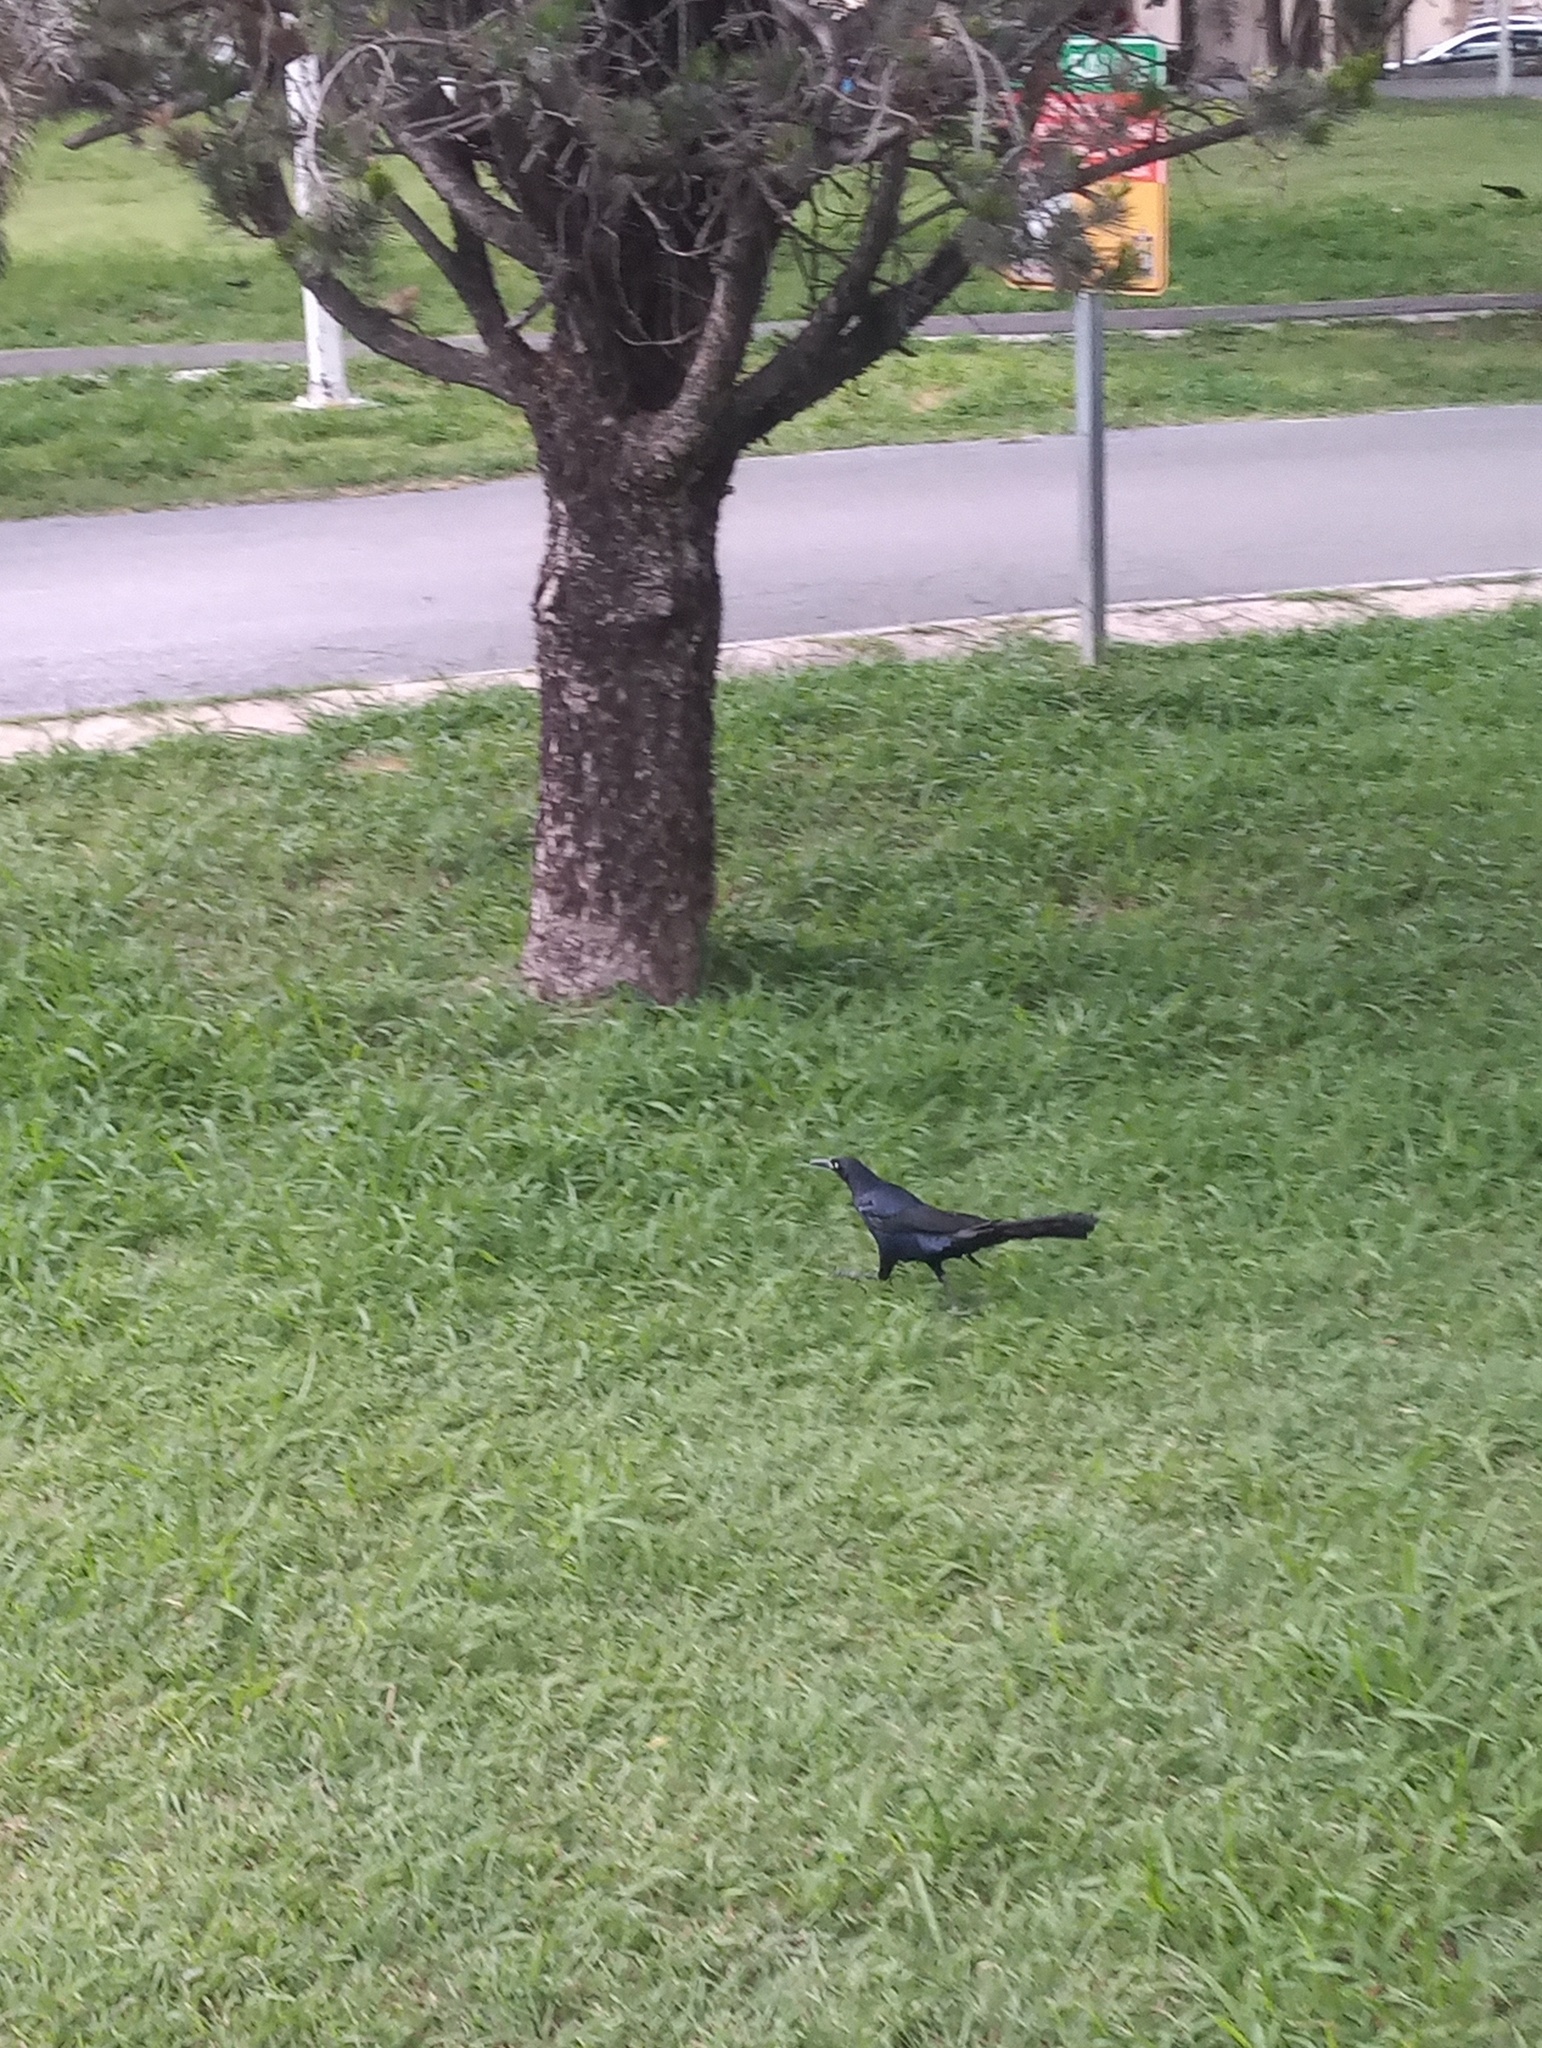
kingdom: Animalia
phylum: Chordata
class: Aves
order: Passeriformes
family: Icteridae
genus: Quiscalus
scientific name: Quiscalus mexicanus
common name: Great-tailed grackle
